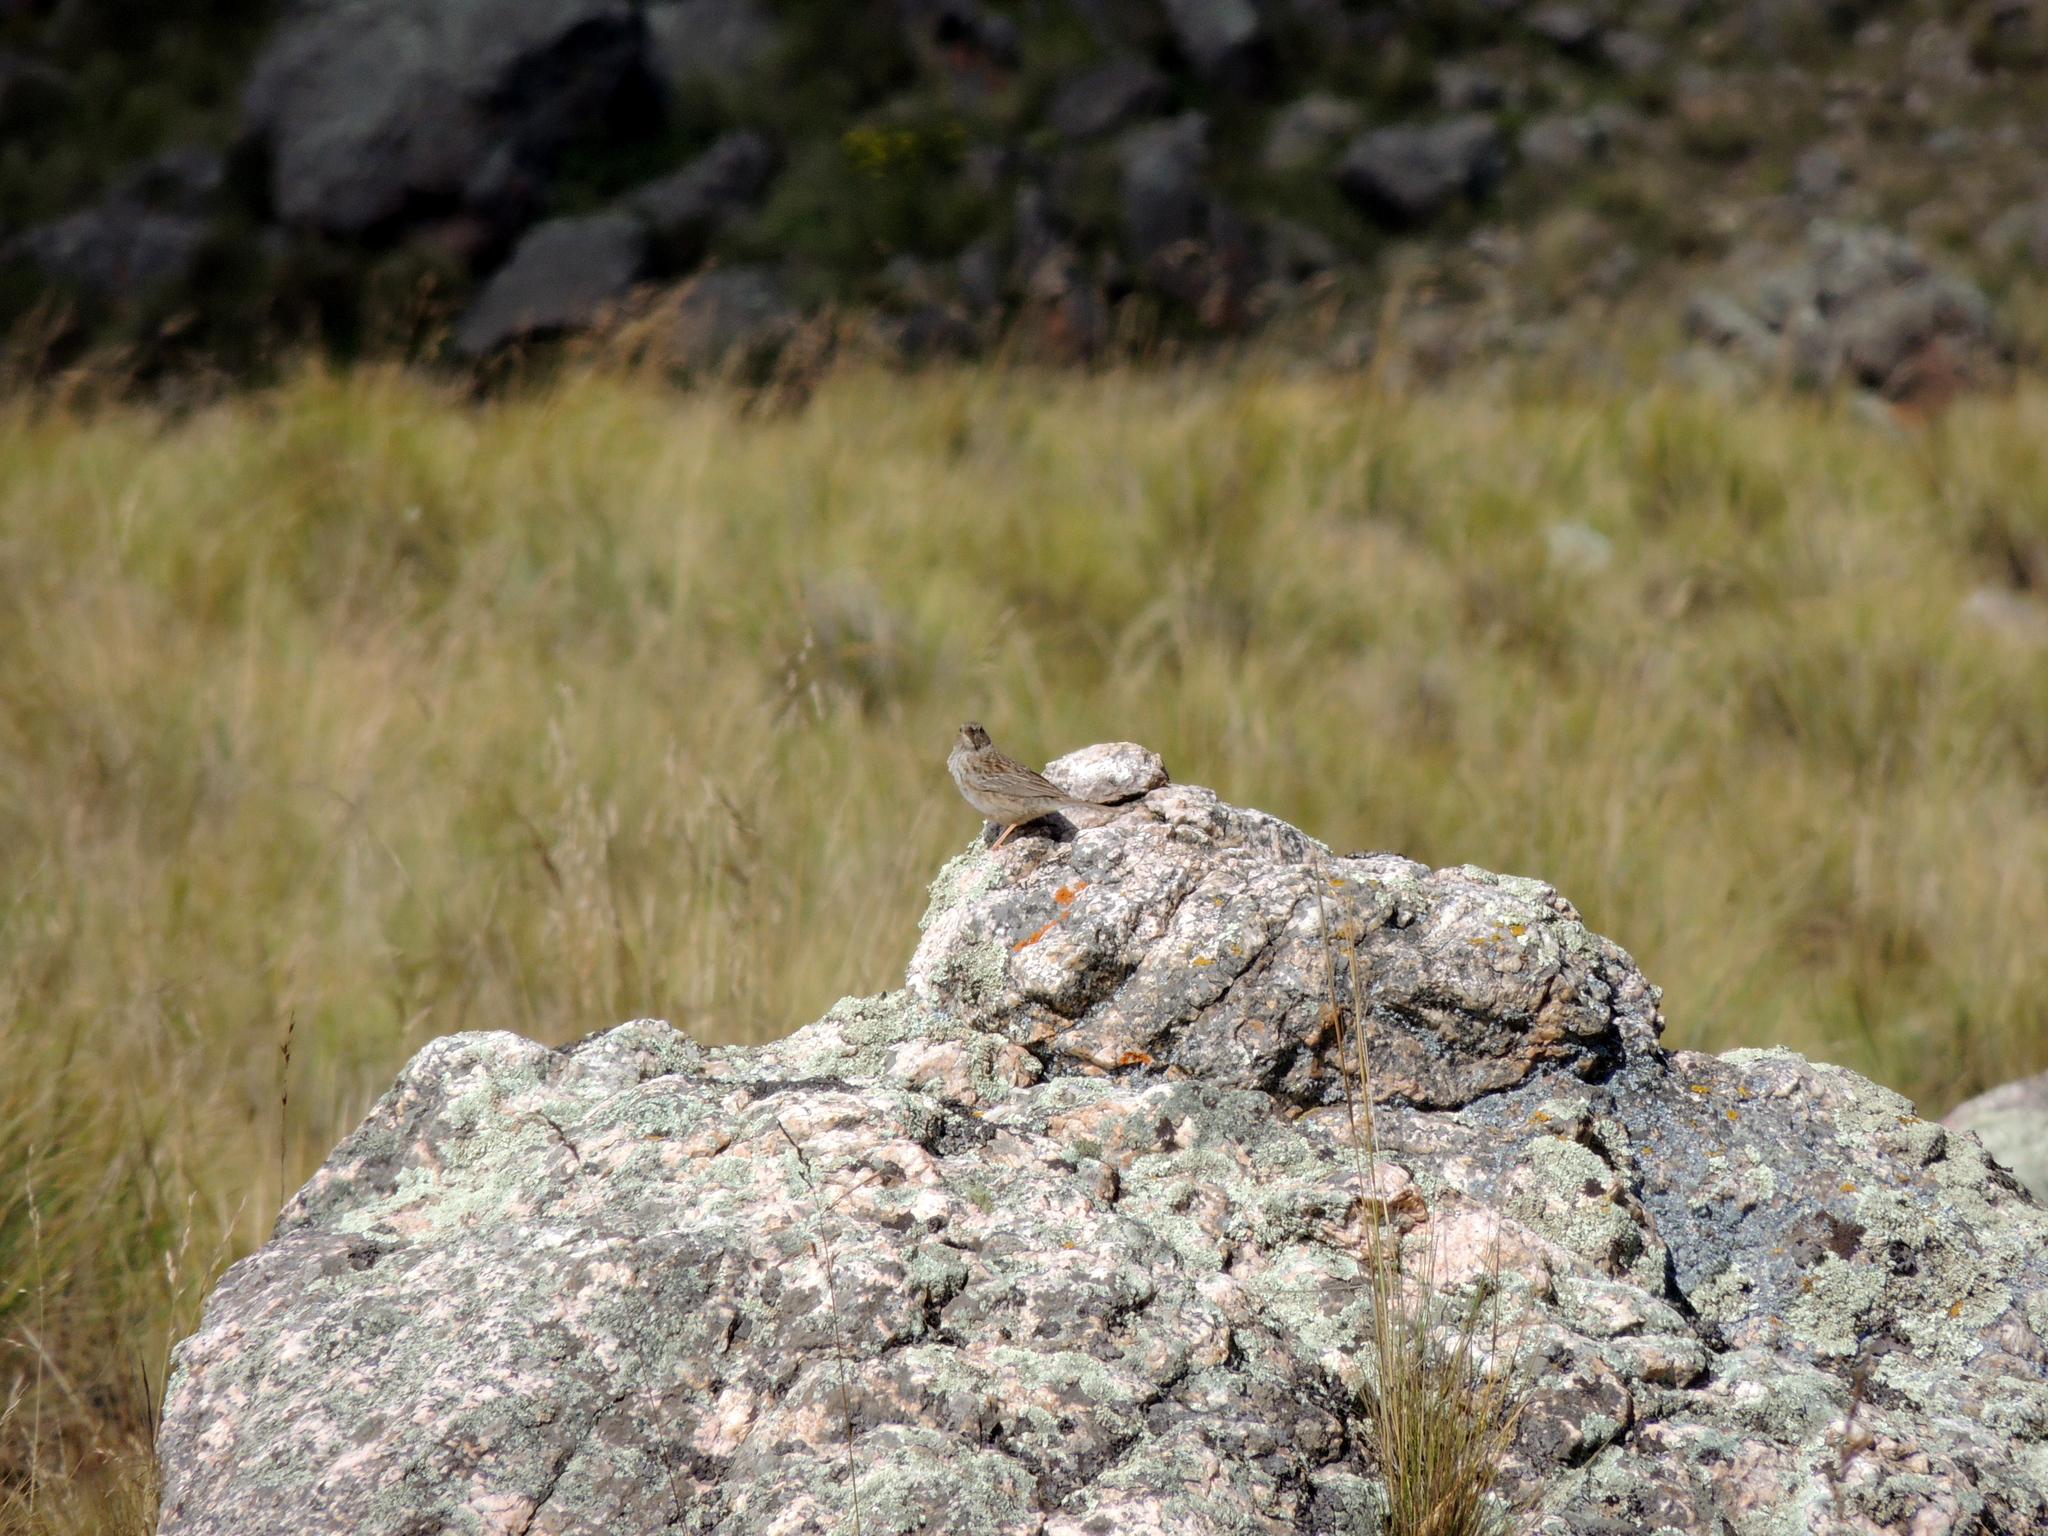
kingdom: Animalia
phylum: Chordata
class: Aves
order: Passeriformes
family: Thraupidae
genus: Geospizopsis
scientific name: Geospizopsis plebejus
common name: Ash-breasted sierra-finch
